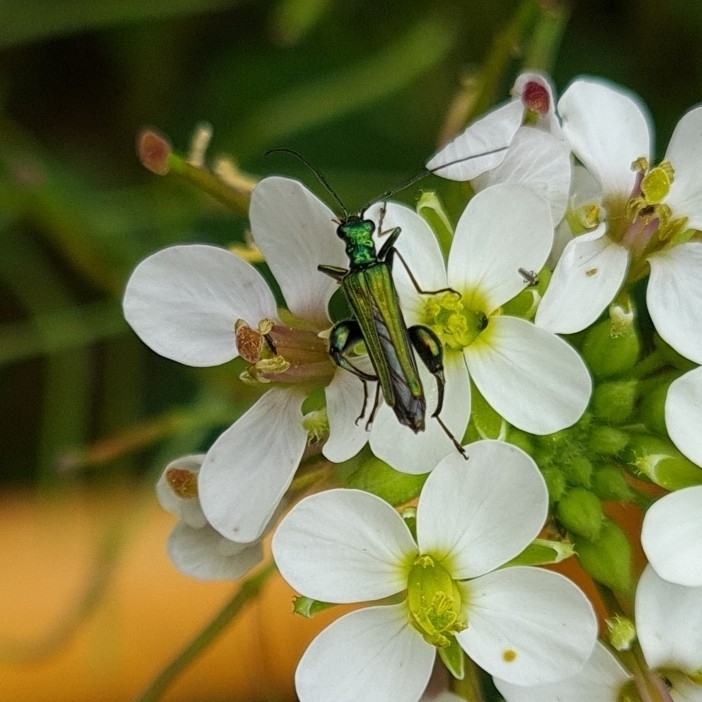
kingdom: Animalia
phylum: Arthropoda
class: Insecta
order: Coleoptera
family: Oedemeridae
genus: Oedemera
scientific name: Oedemera nobilis
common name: Swollen-thighed beetle
